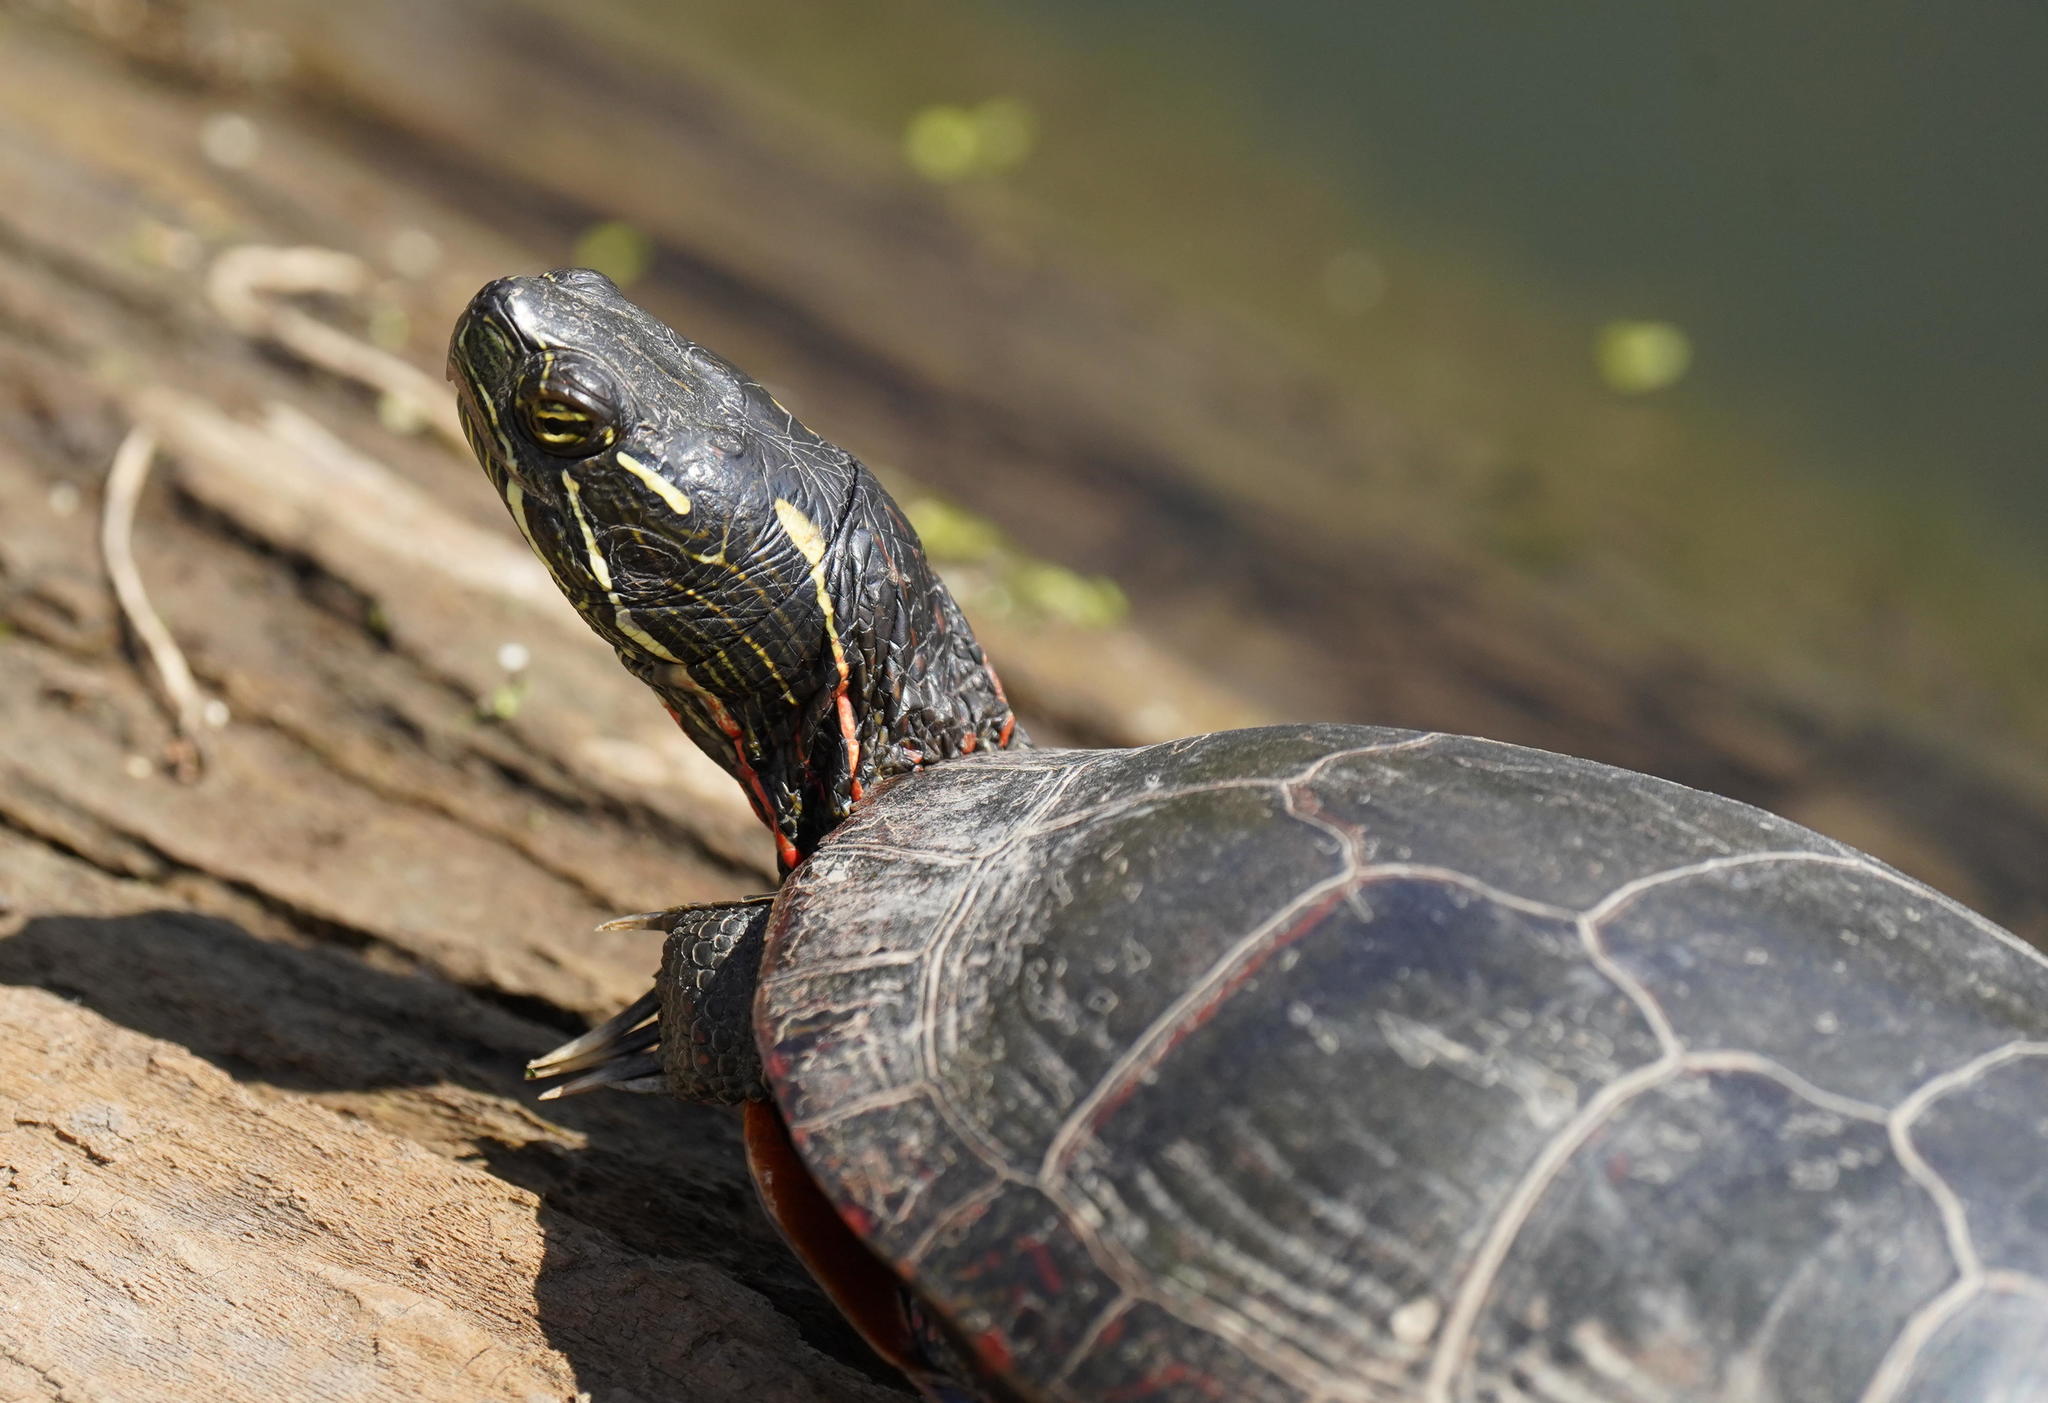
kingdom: Animalia
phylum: Chordata
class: Testudines
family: Emydidae
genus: Chrysemys
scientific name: Chrysemys picta
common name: Painted turtle
